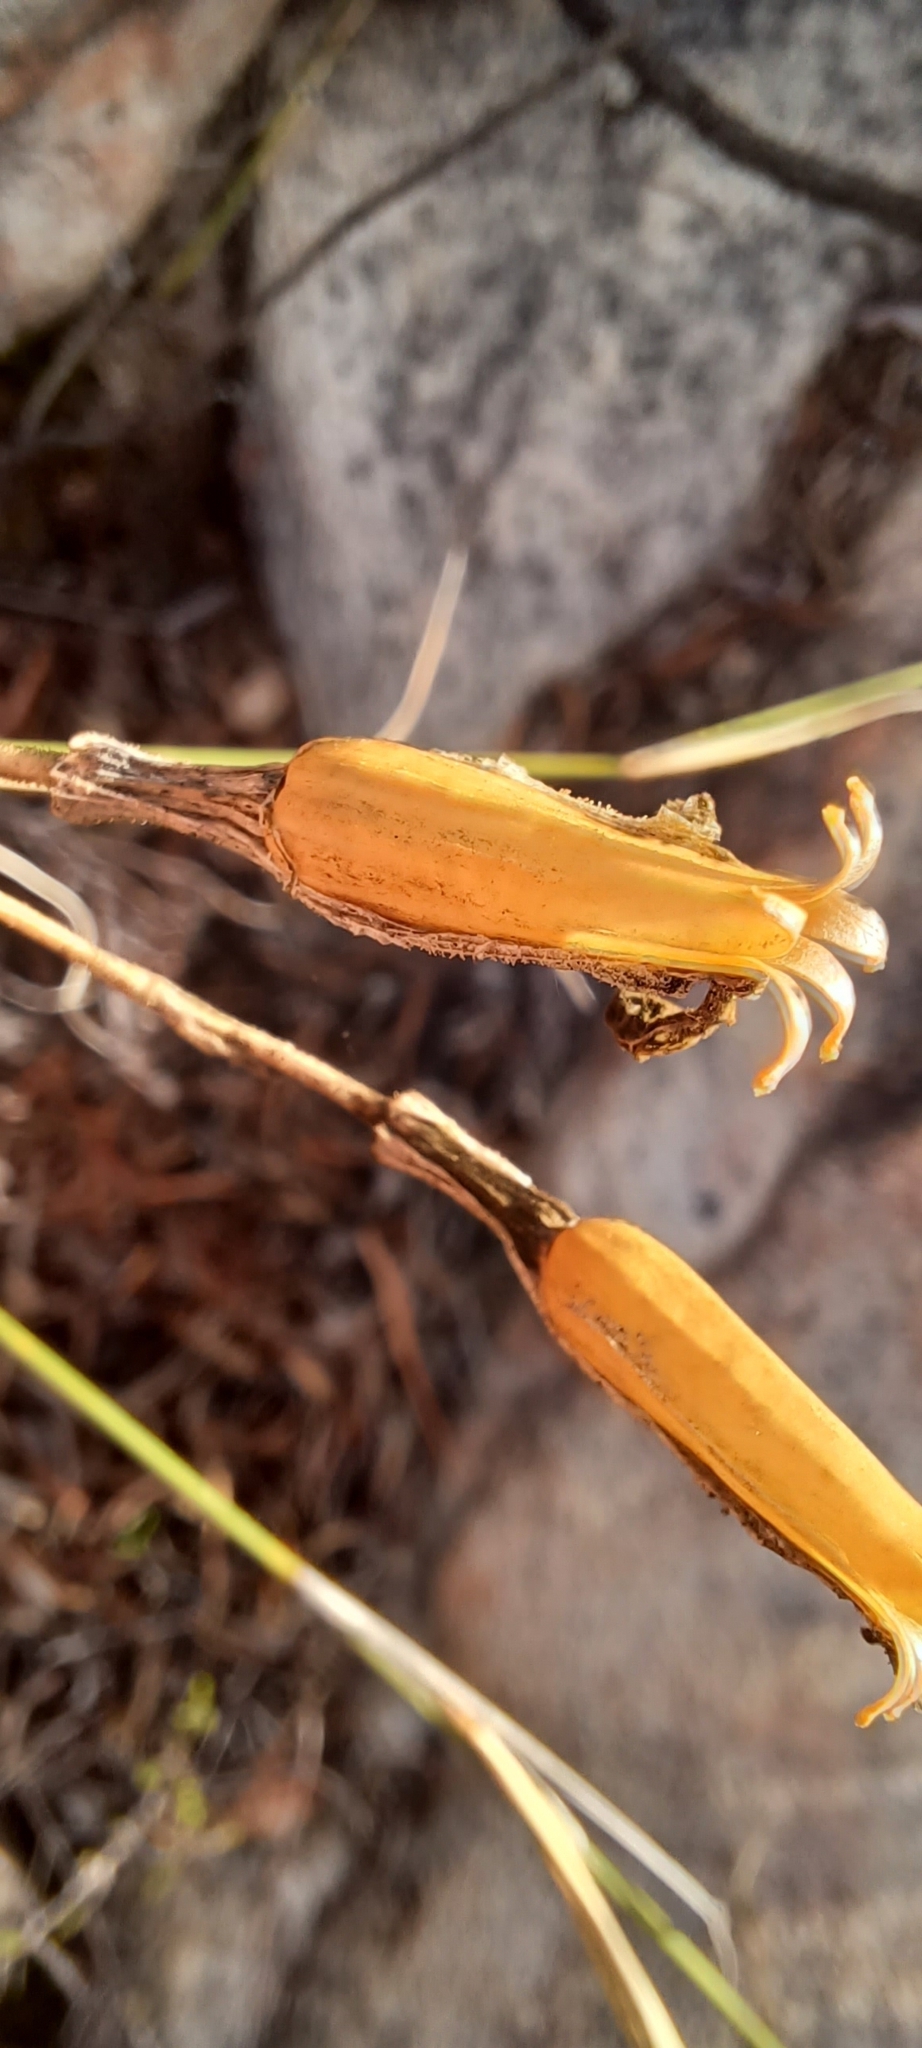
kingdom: Plantae
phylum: Tracheophyta
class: Magnoliopsida
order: Caryophyllales
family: Caryophyllaceae
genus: Silene
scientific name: Silene undulata
